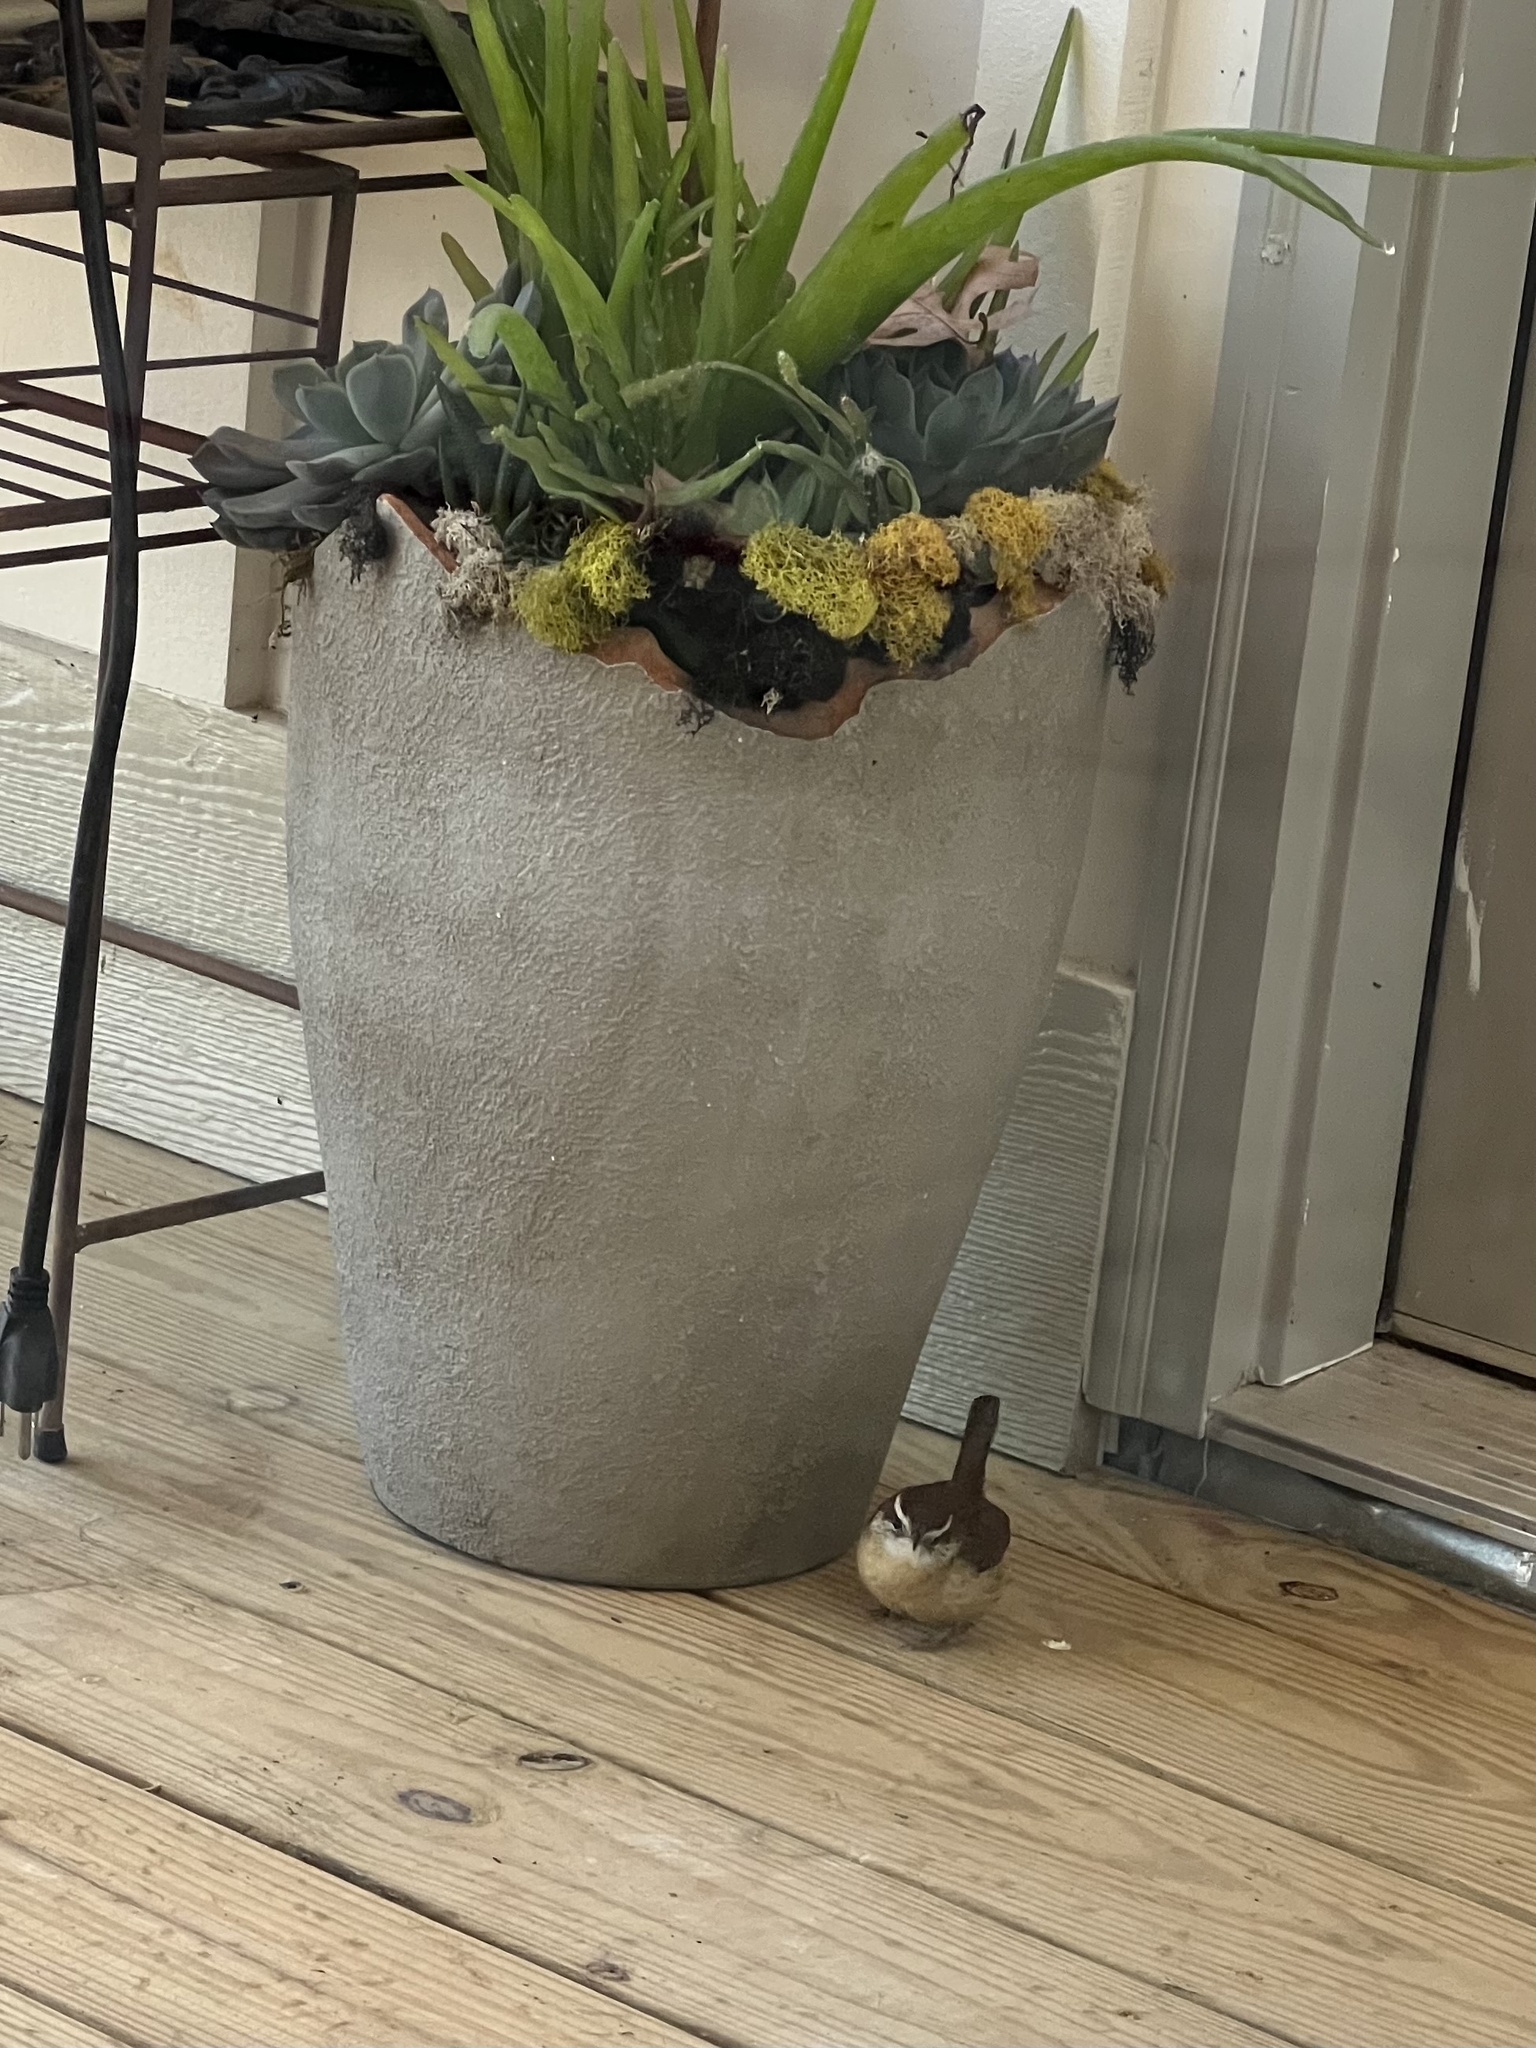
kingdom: Animalia
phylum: Chordata
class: Aves
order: Passeriformes
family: Troglodytidae
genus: Thryothorus
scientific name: Thryothorus ludovicianus
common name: Carolina wren
